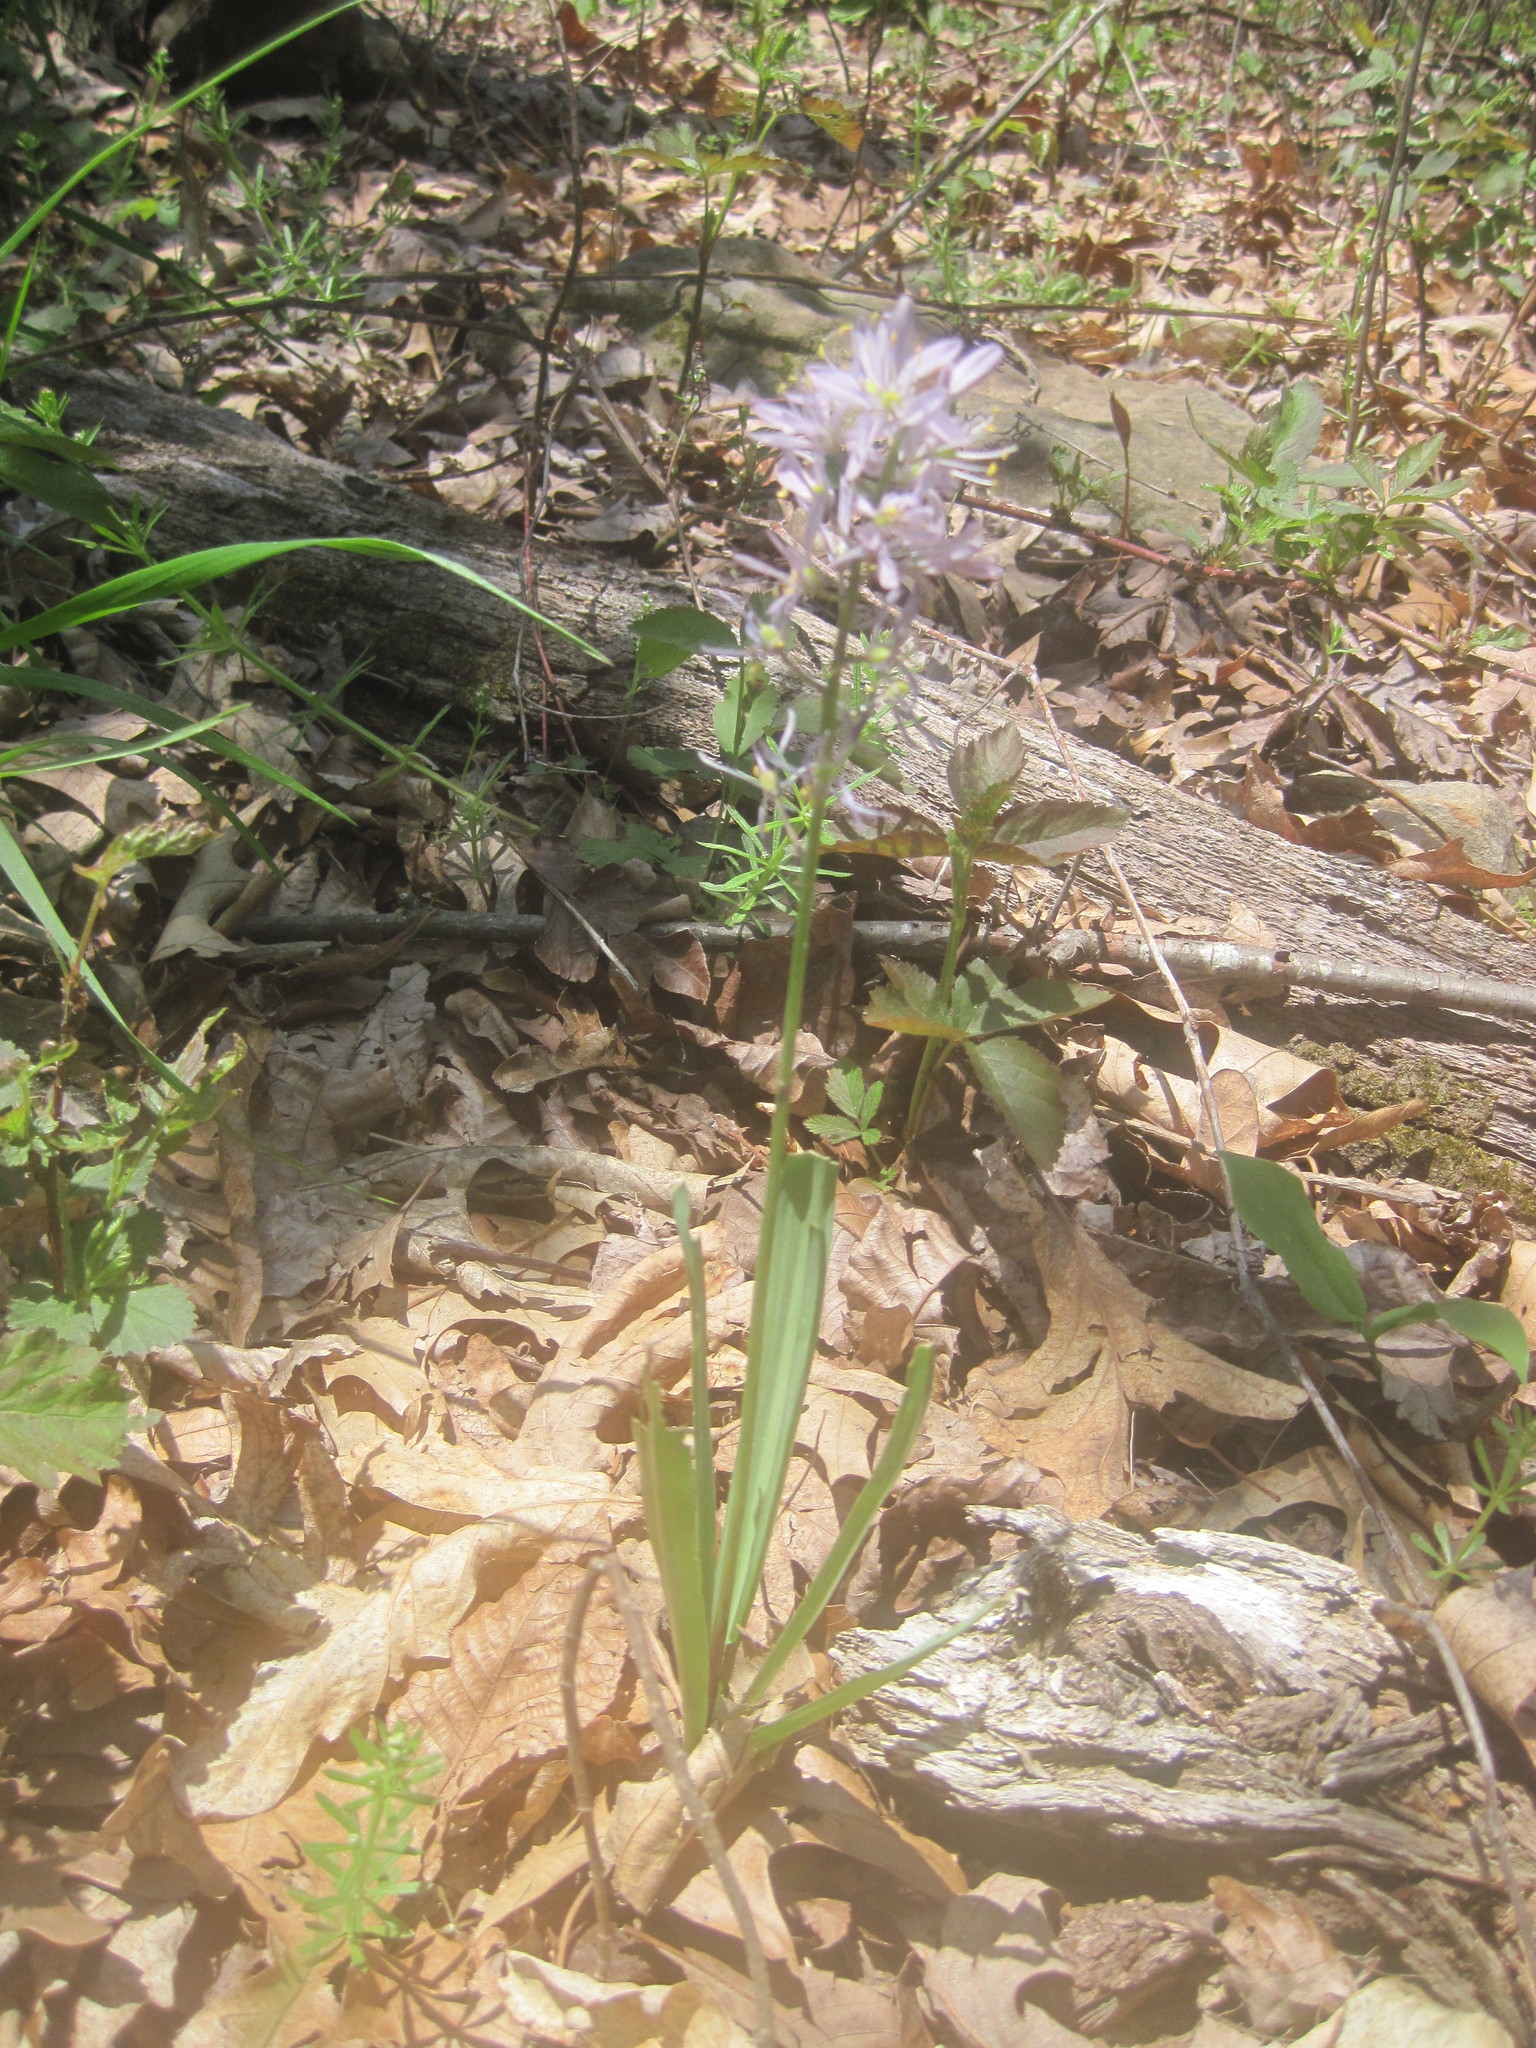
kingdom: Plantae
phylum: Tracheophyta
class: Liliopsida
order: Asparagales
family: Asparagaceae
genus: Camassia
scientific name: Camassia scilloides
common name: Wild hyacinth
